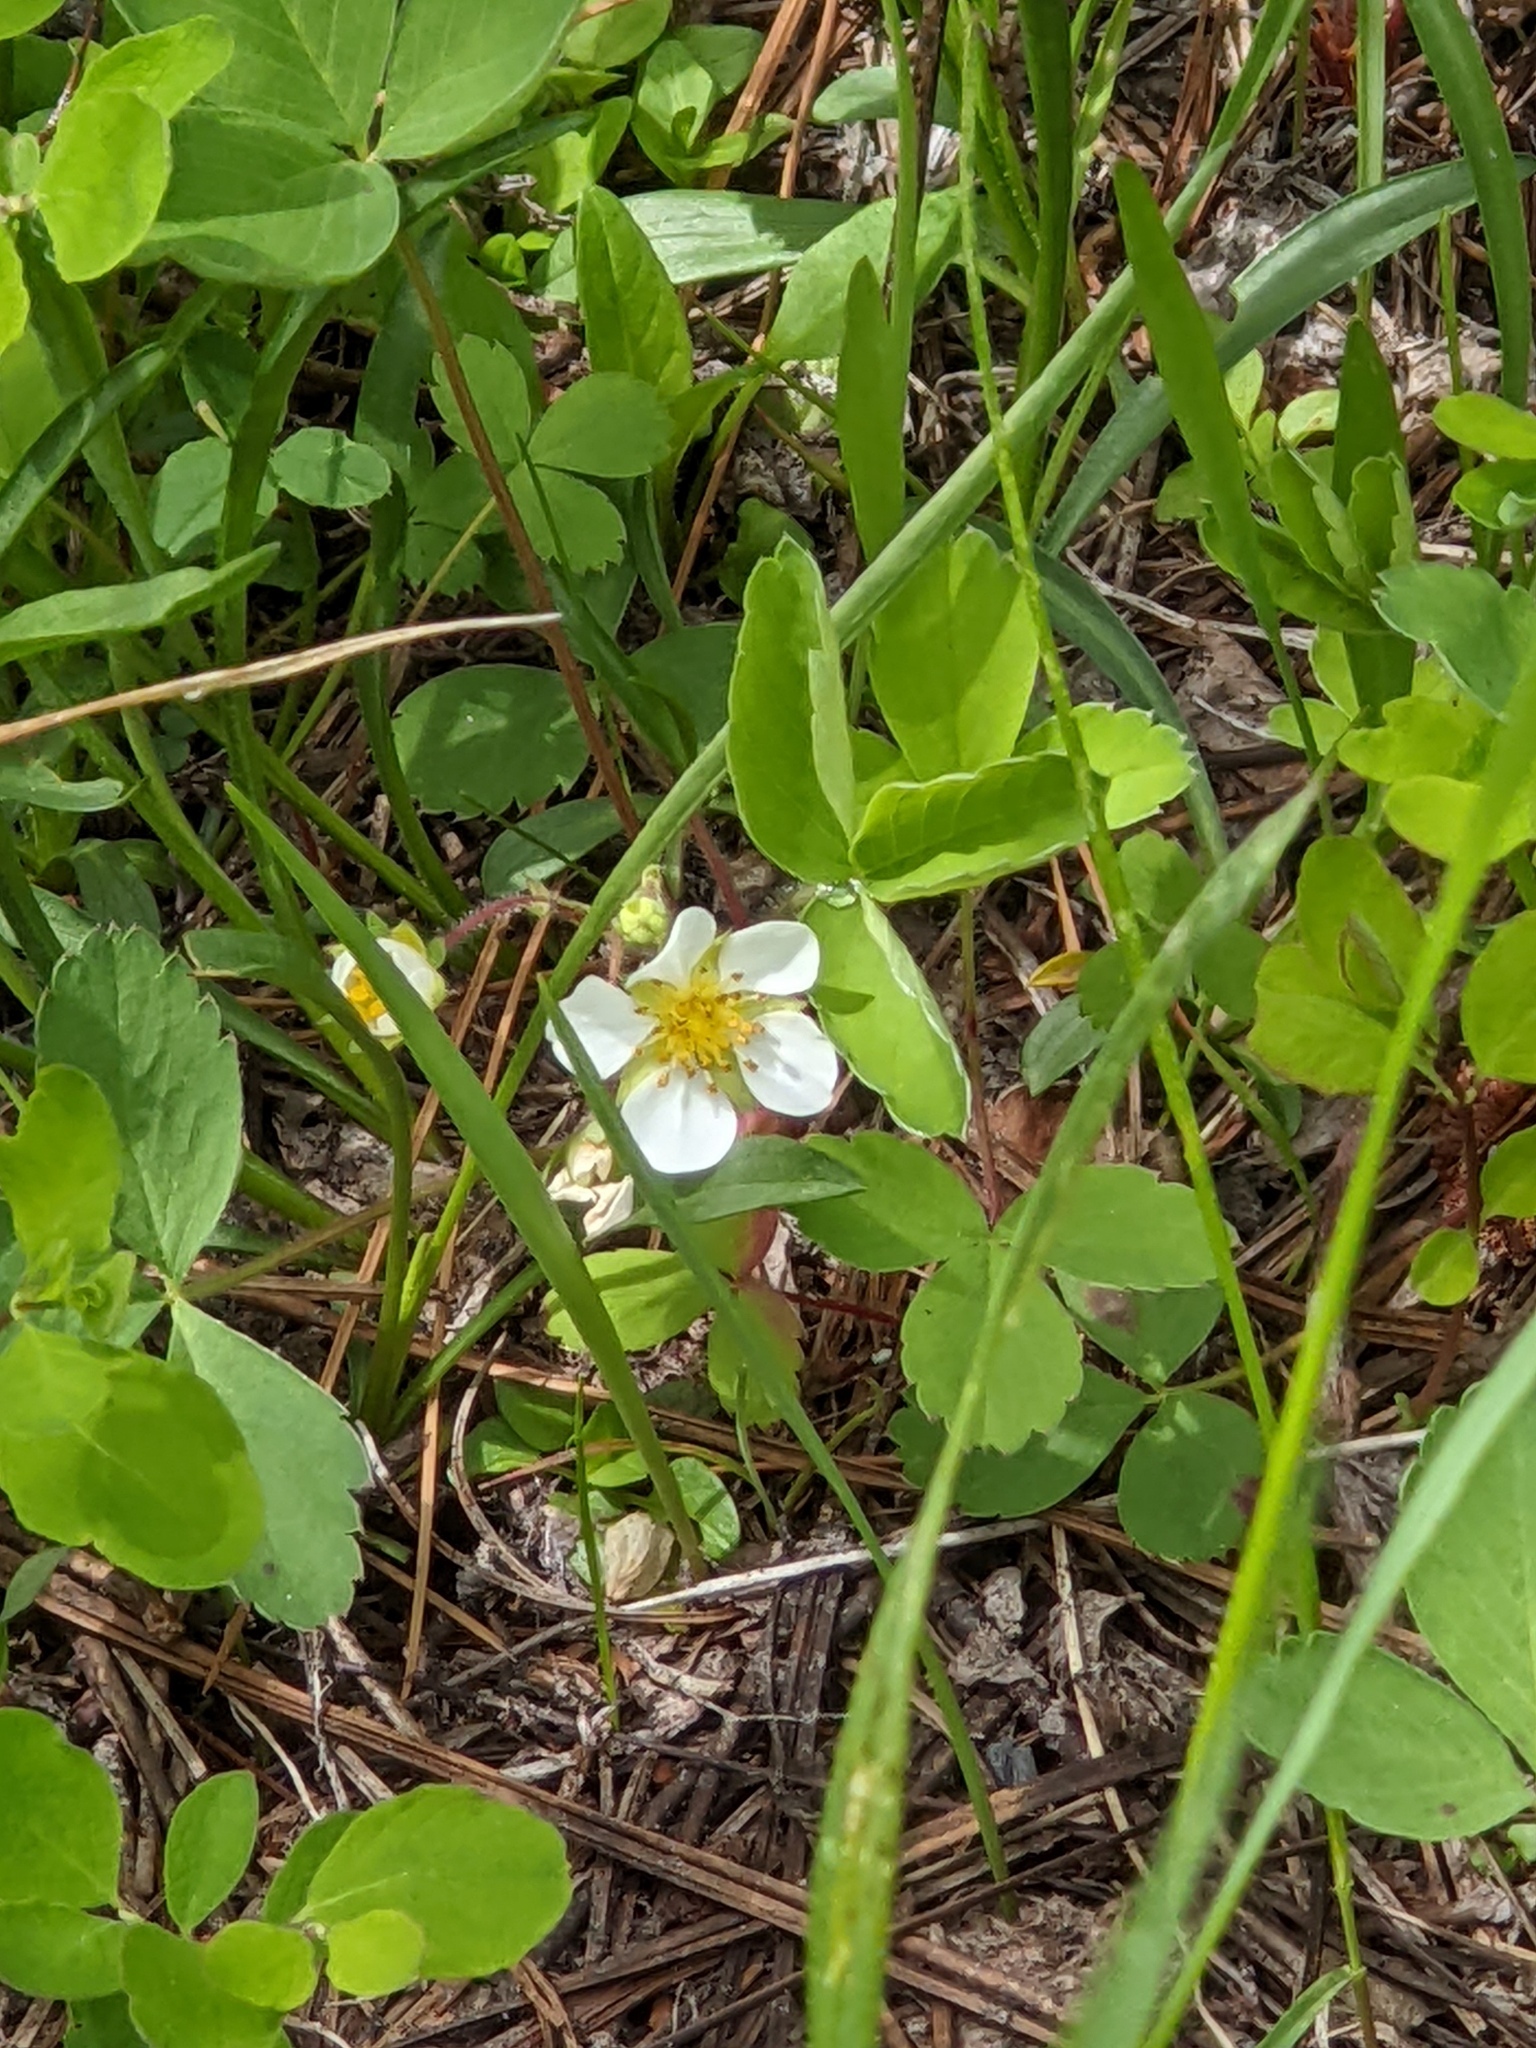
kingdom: Plantae
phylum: Tracheophyta
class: Magnoliopsida
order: Rosales
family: Rosaceae
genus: Fragaria
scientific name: Fragaria virginiana
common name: Thickleaved wild strawberry
